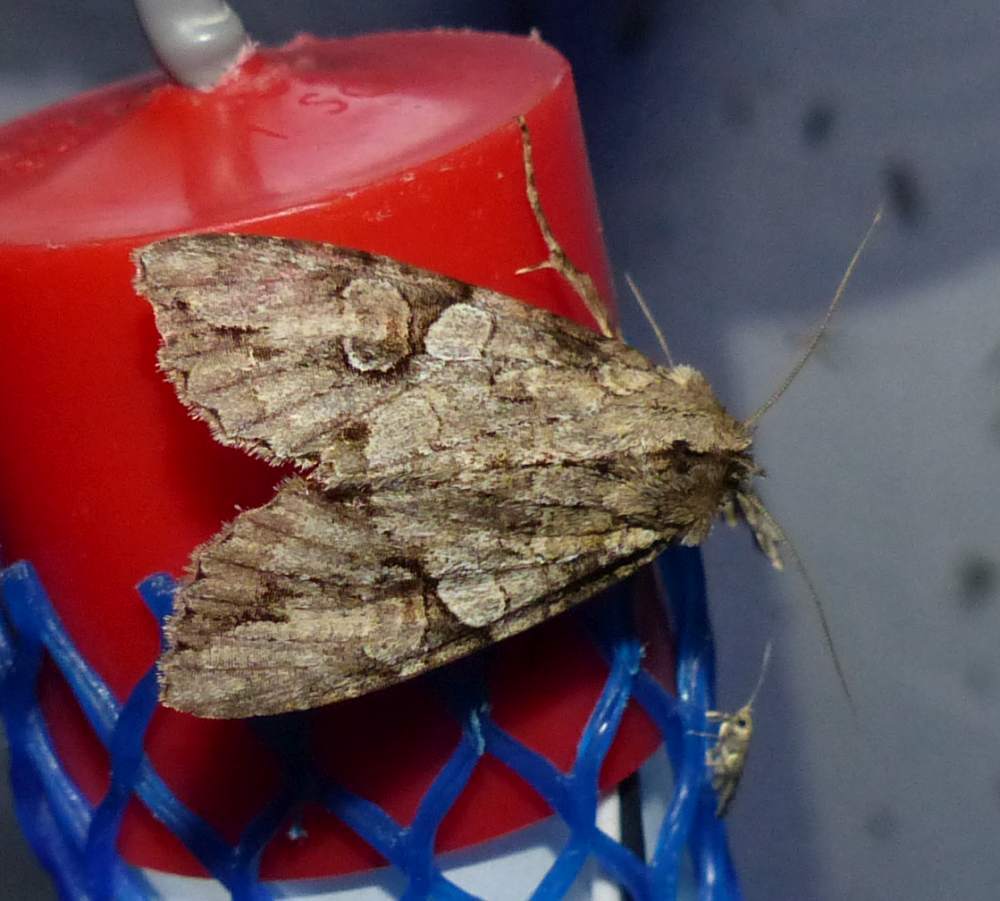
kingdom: Animalia
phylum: Arthropoda
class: Insecta
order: Lepidoptera
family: Noctuidae
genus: Achatia
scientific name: Achatia latex
